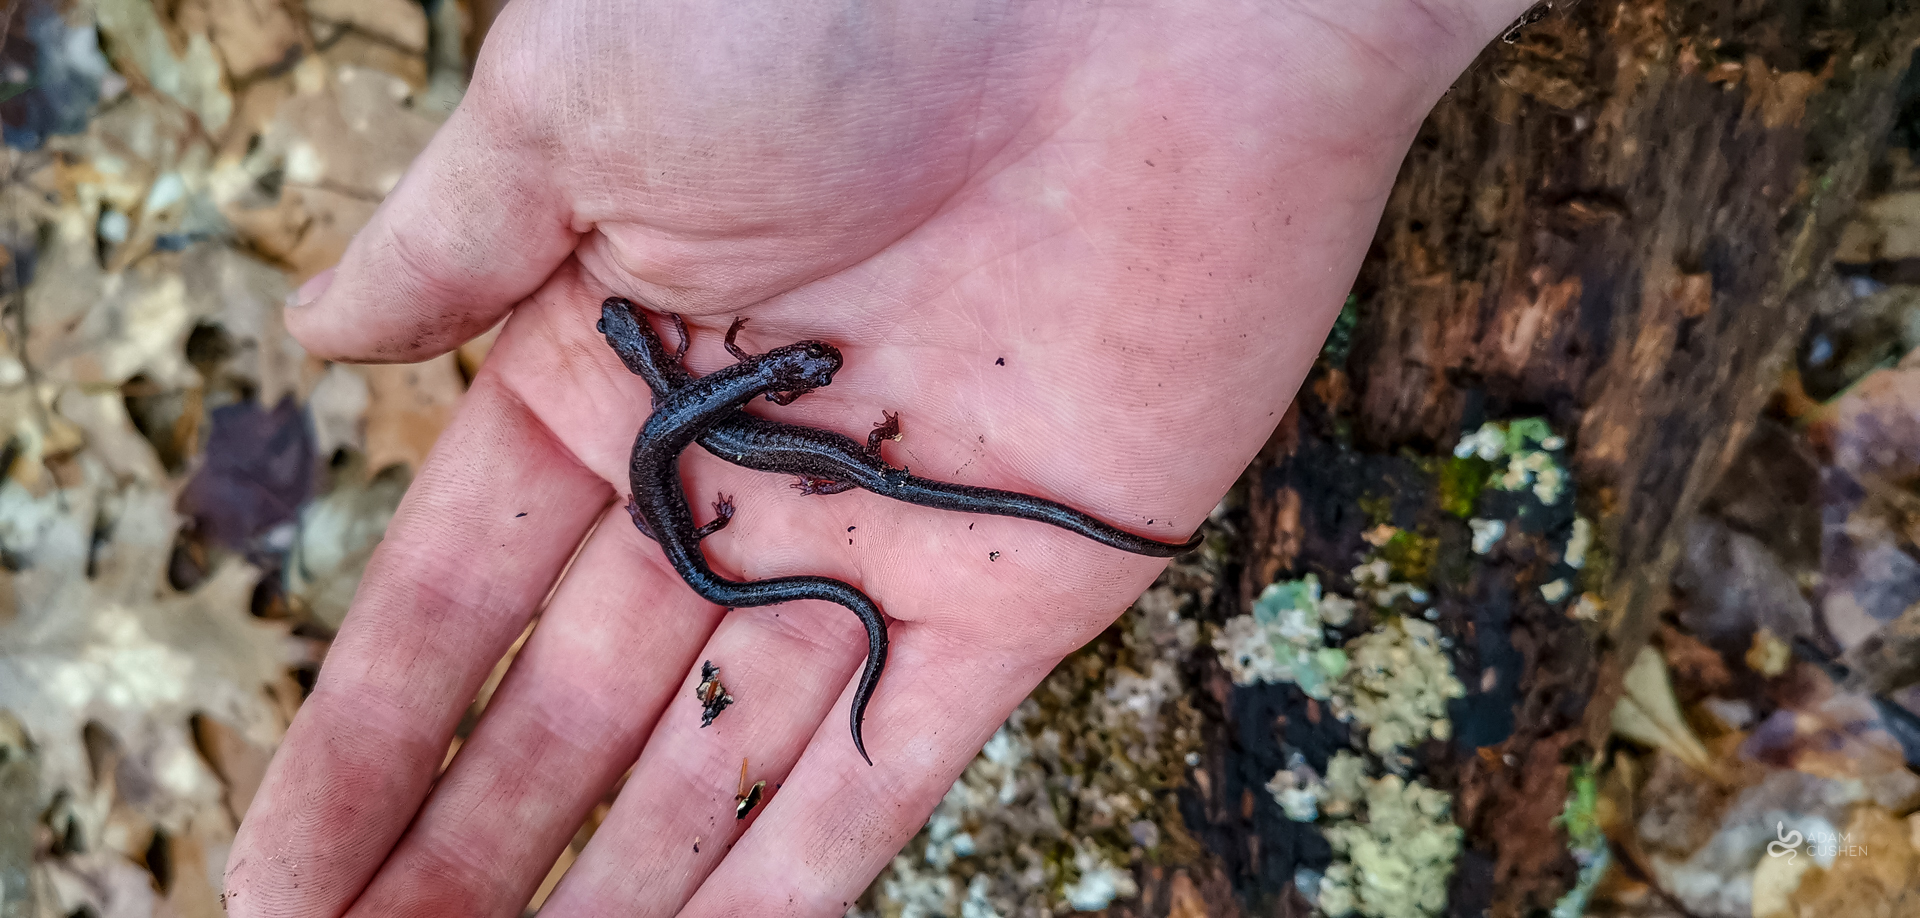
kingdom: Animalia
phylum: Chordata
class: Amphibia
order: Caudata
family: Plethodontidae
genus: Plethodon
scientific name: Plethodon cinereus
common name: Redback salamander
